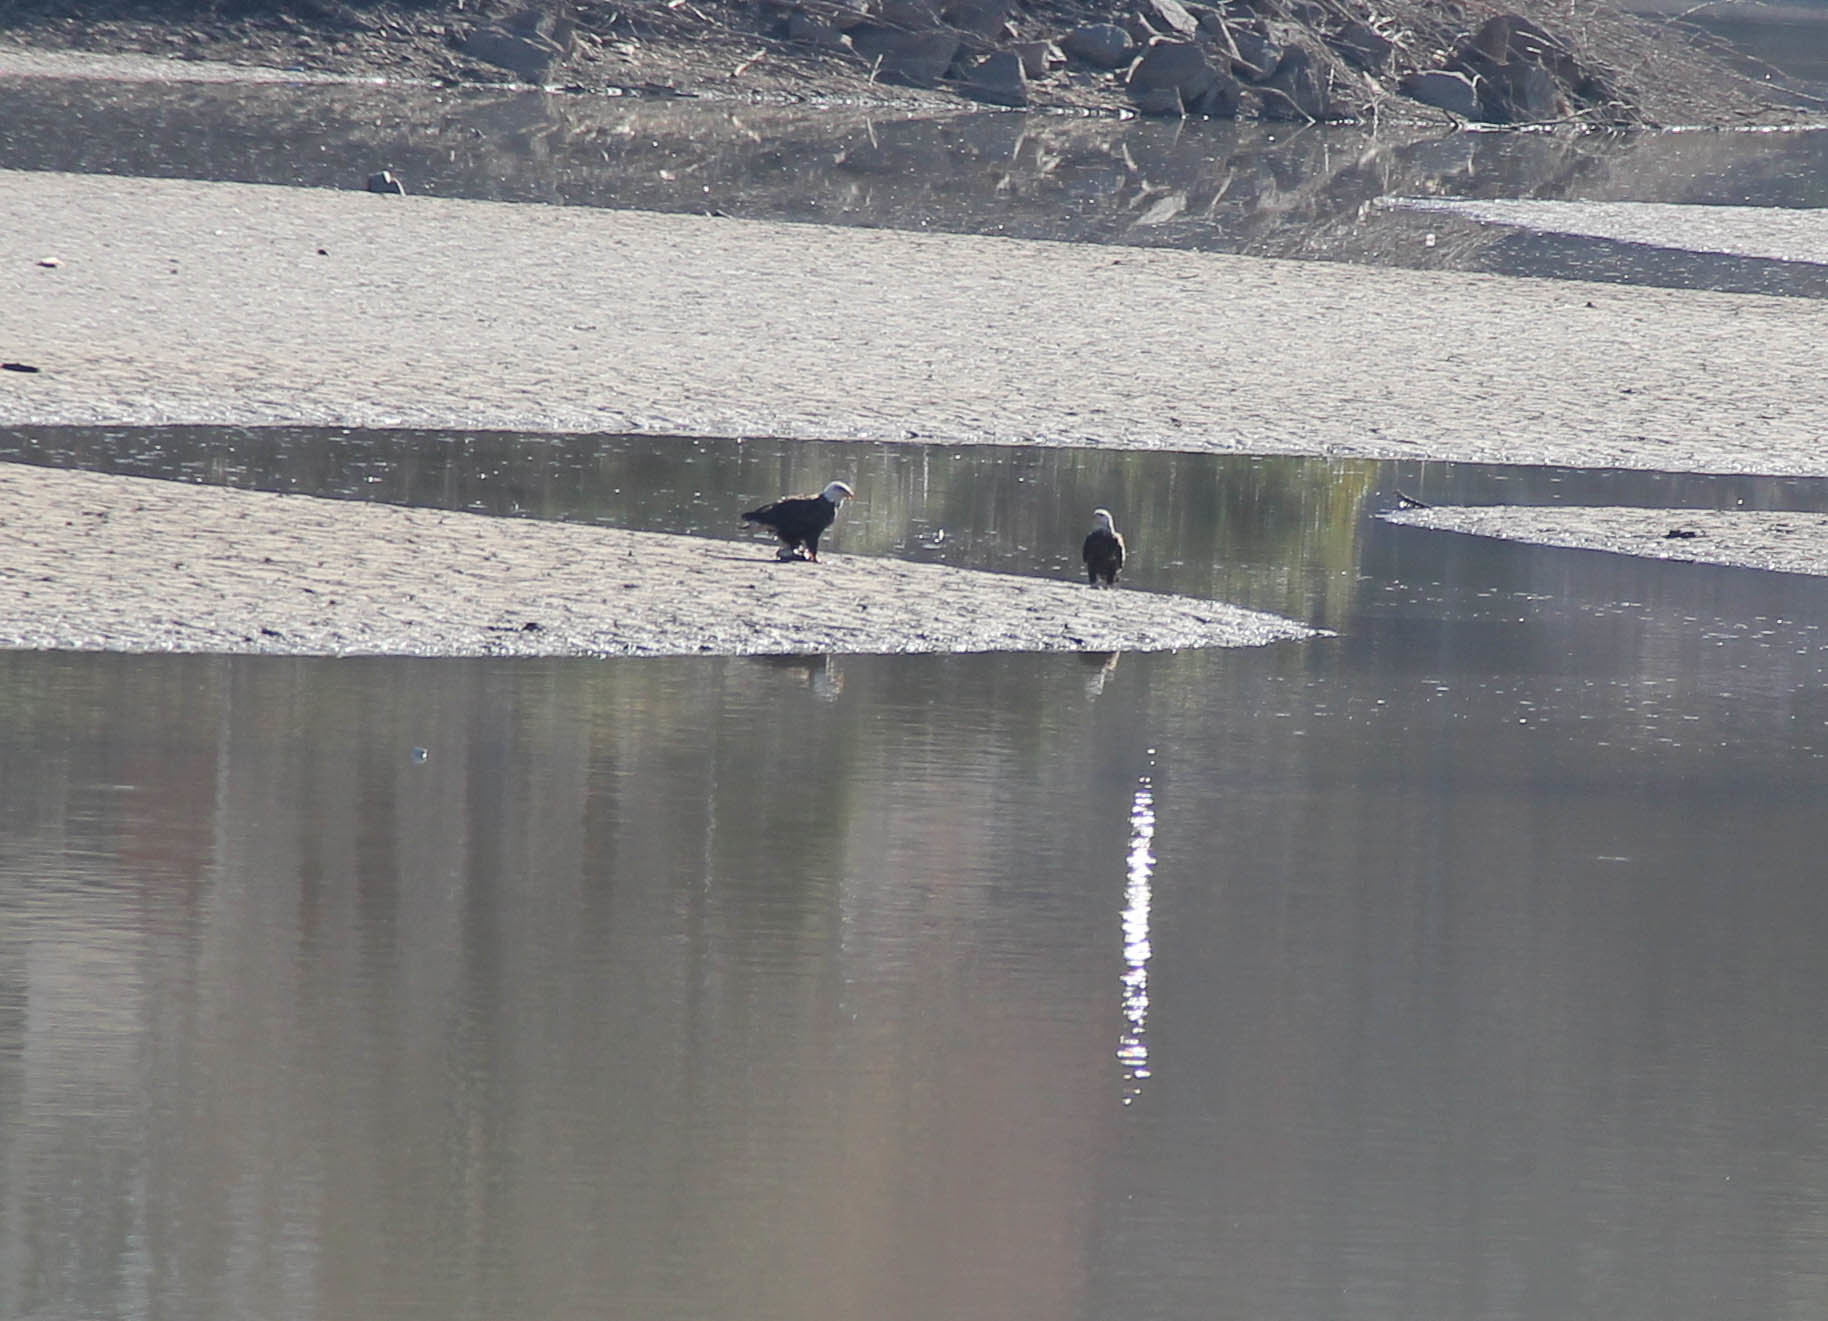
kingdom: Animalia
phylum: Chordata
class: Aves
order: Accipitriformes
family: Accipitridae
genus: Haliaeetus
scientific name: Haliaeetus leucocephalus
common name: Bald eagle
